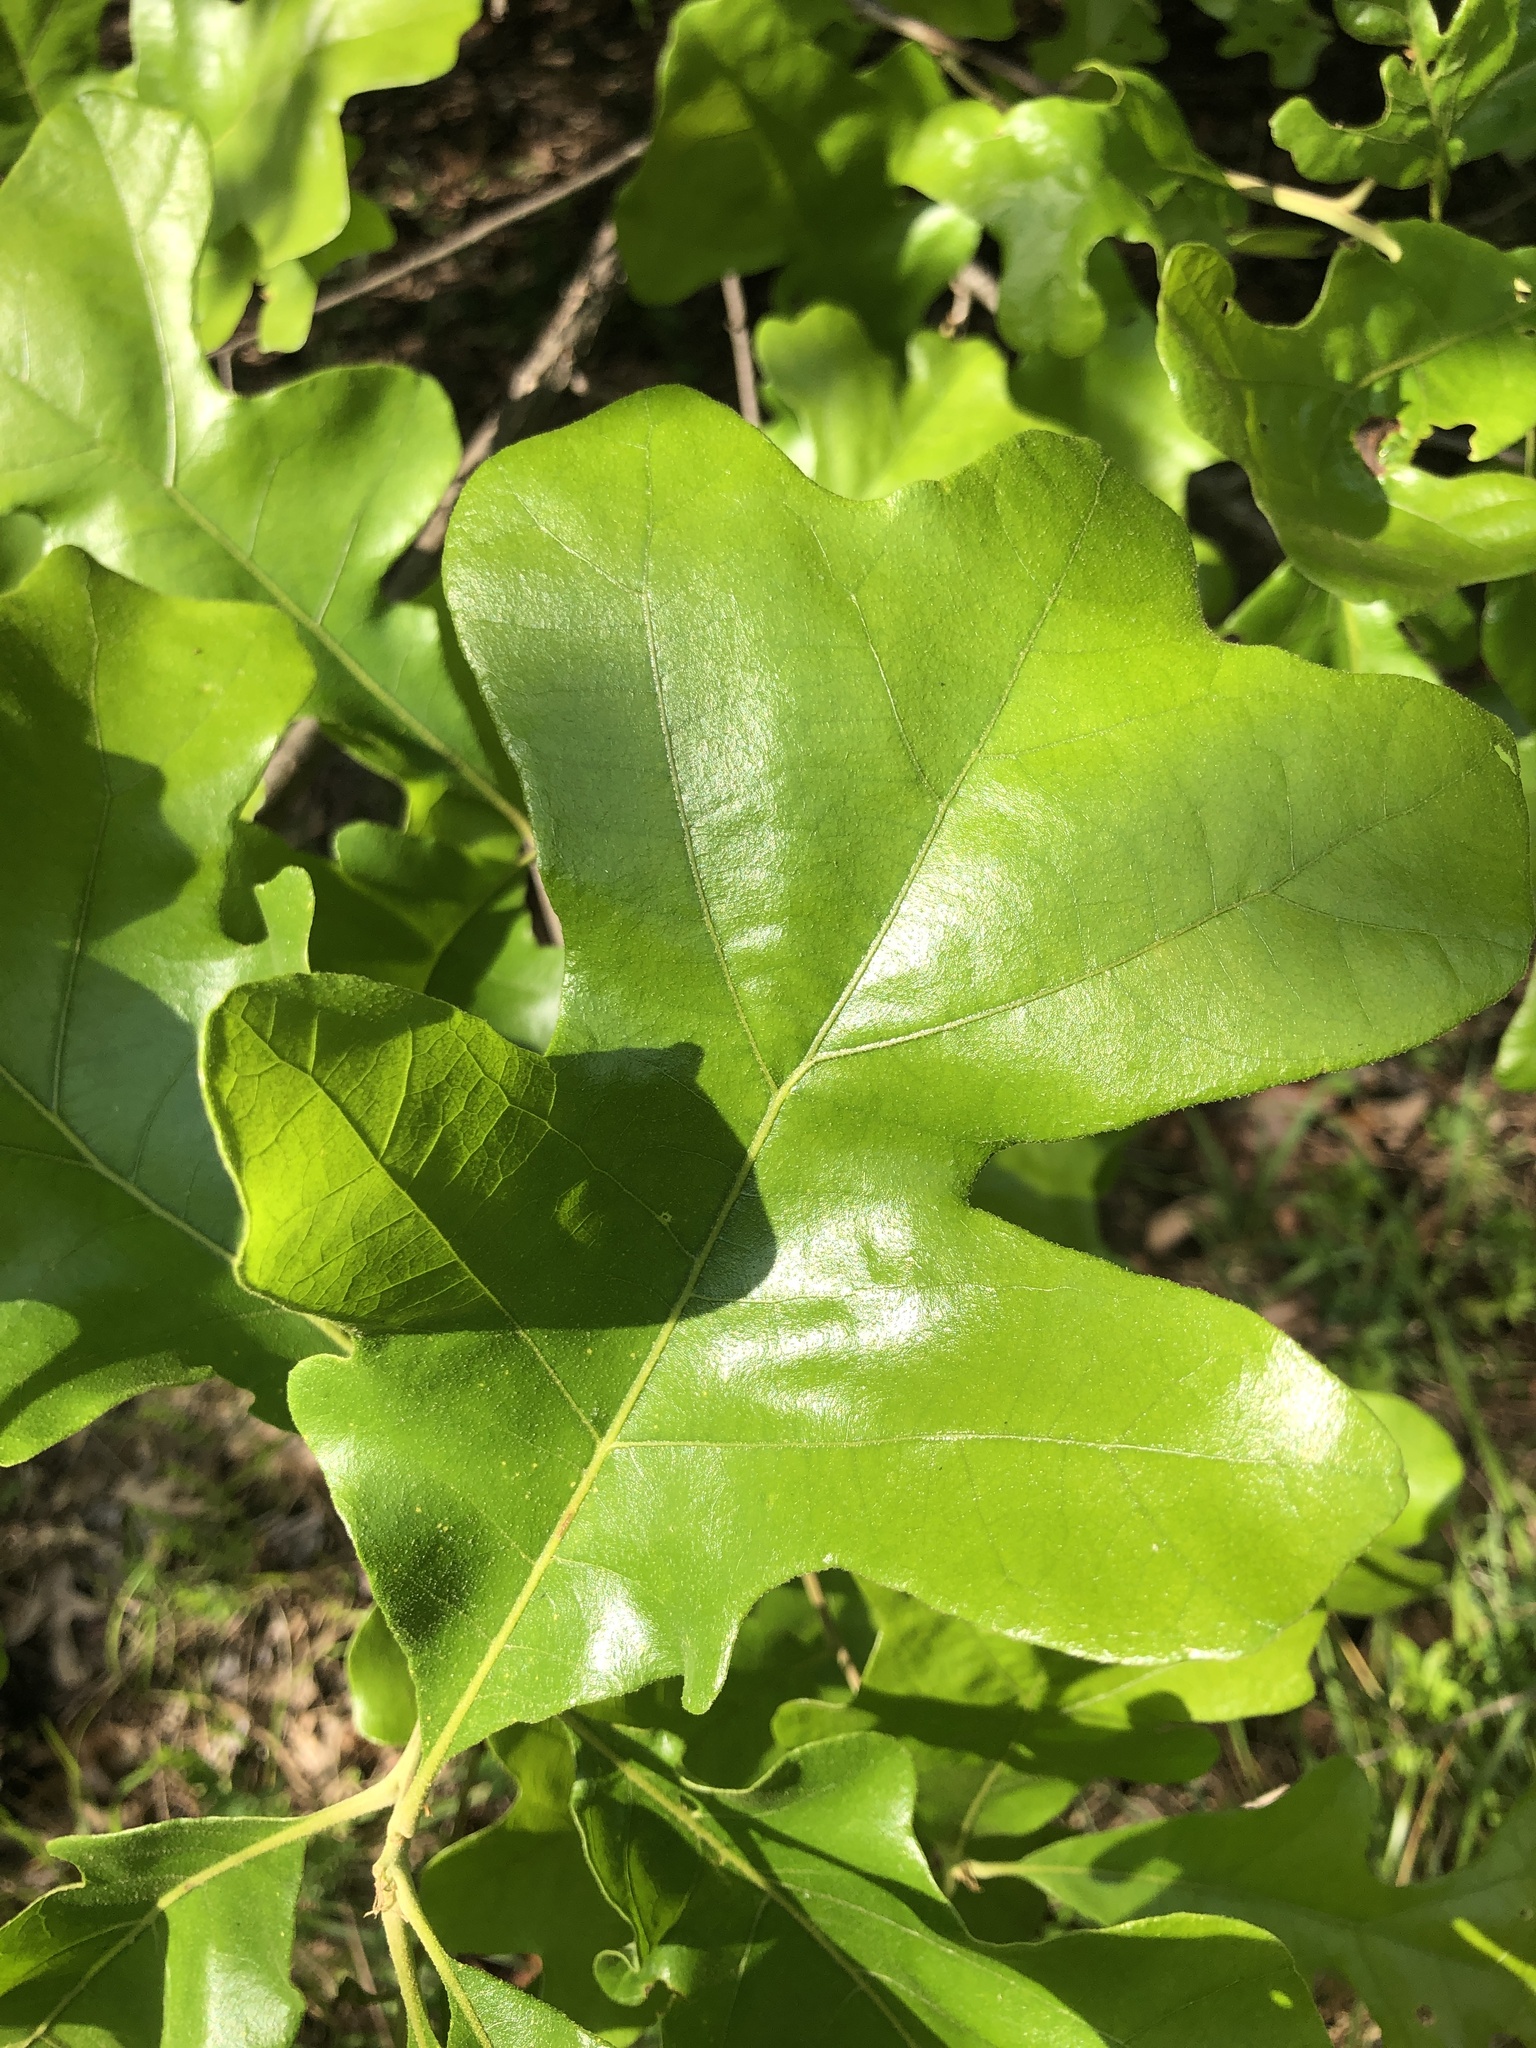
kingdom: Plantae
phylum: Tracheophyta
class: Magnoliopsida
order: Fagales
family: Fagaceae
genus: Quercus
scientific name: Quercus stellata
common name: Post oak
